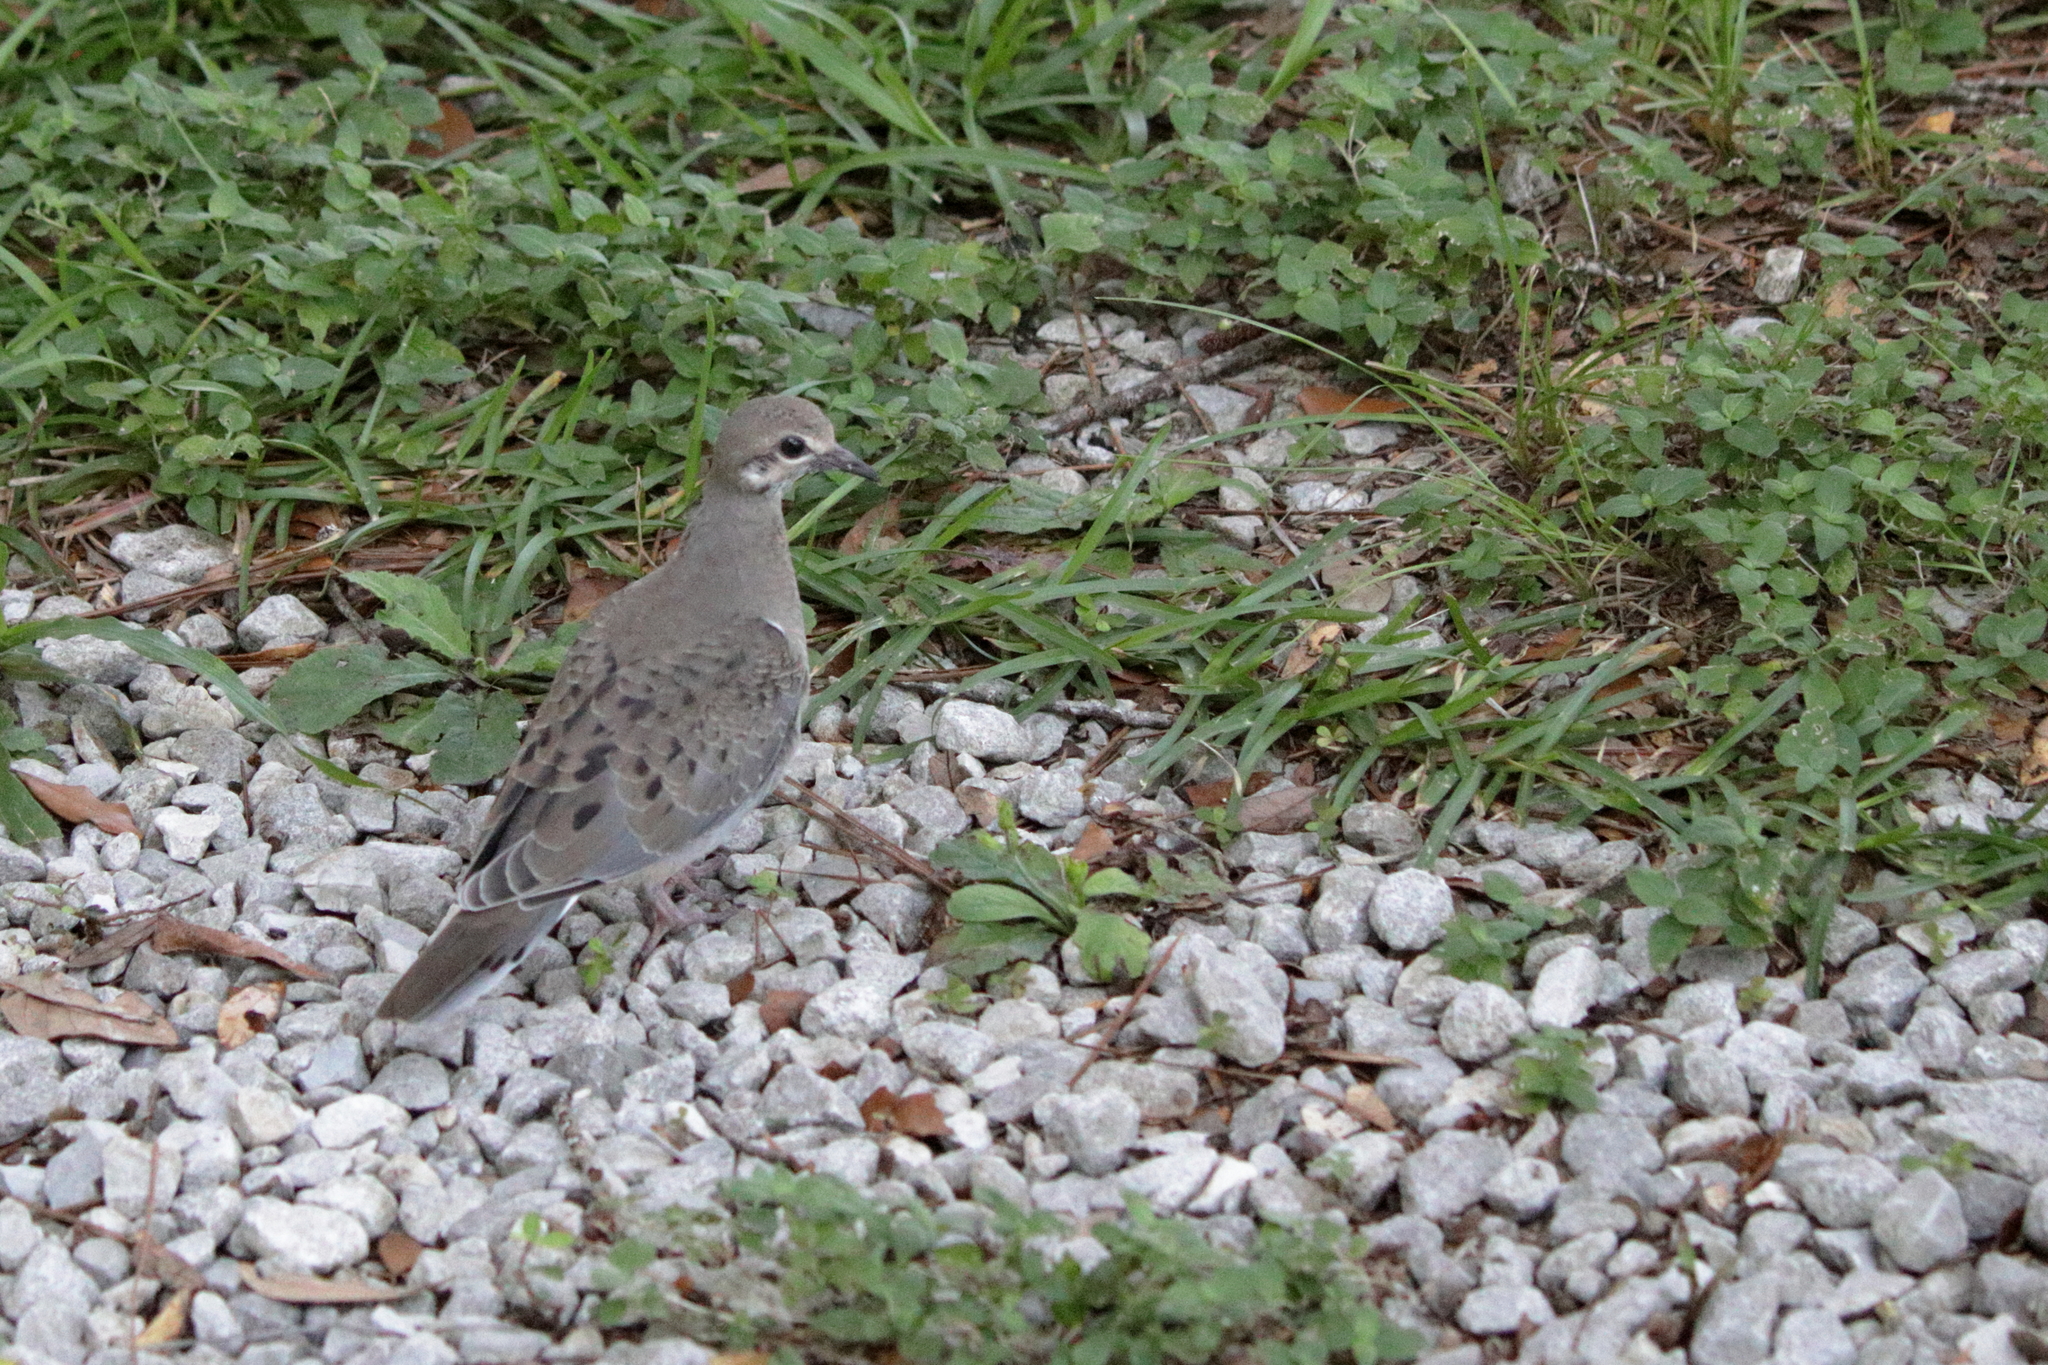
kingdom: Animalia
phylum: Chordata
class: Aves
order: Columbiformes
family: Columbidae
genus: Zenaida
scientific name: Zenaida macroura
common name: Mourning dove
